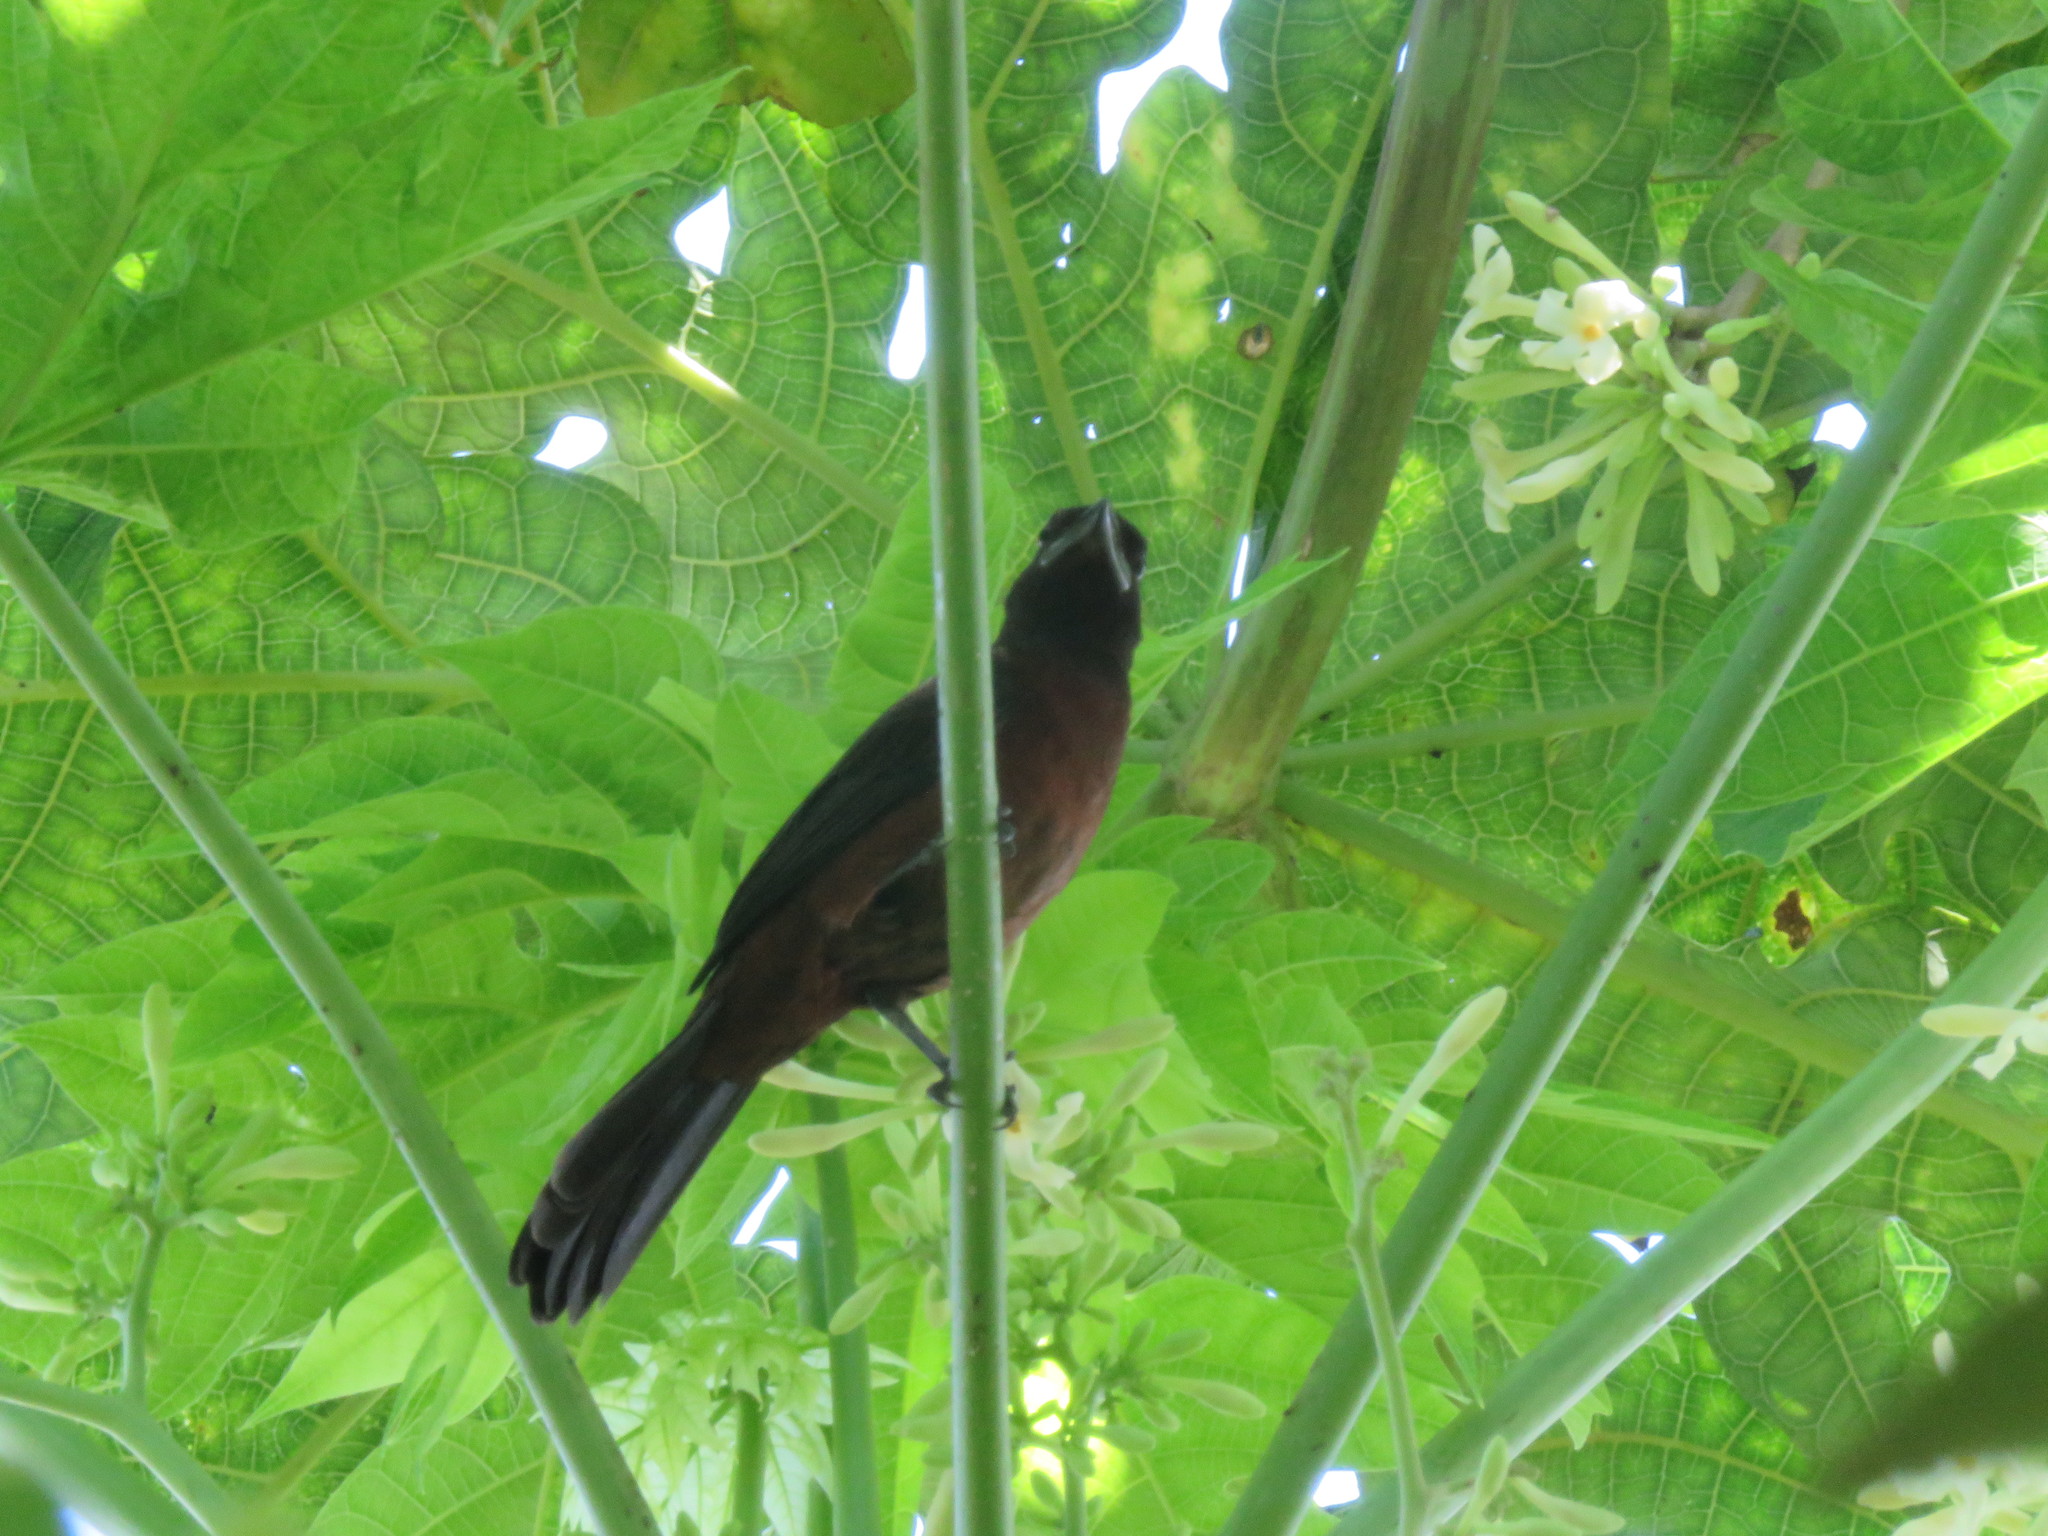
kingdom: Animalia
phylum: Chordata
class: Aves
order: Passeriformes
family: Thraupidae
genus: Ramphocelus
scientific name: Ramphocelus carbo
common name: Silver-beaked tanager
